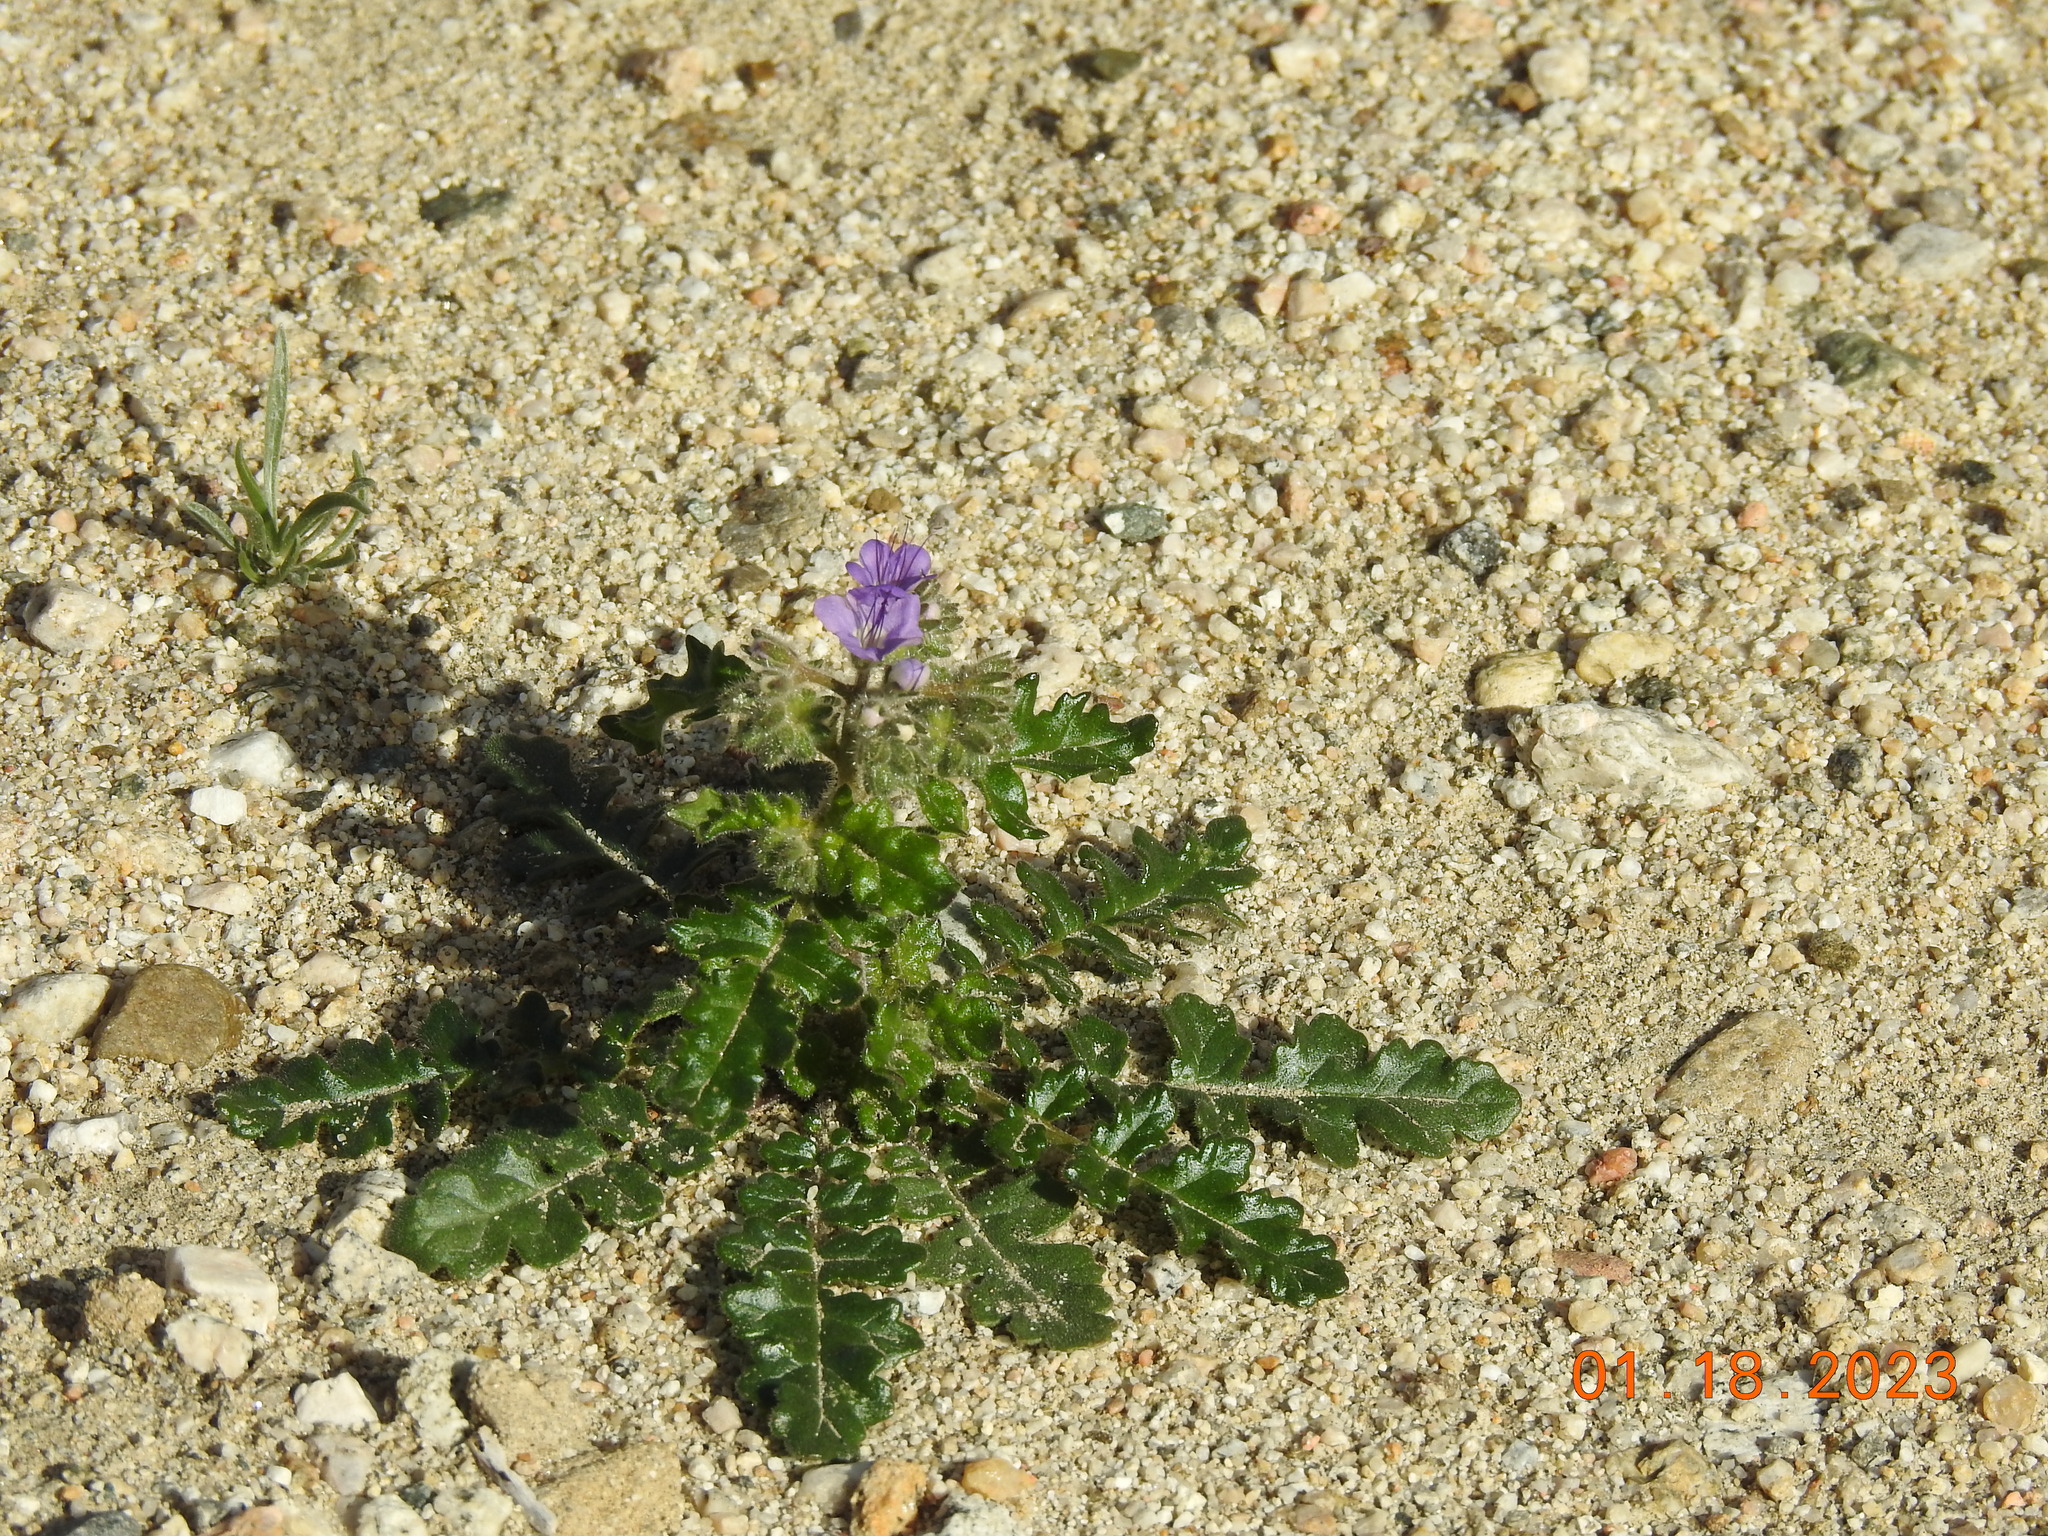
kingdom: Plantae
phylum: Tracheophyta
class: Magnoliopsida
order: Boraginales
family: Hydrophyllaceae
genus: Phacelia
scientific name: Phacelia crenulata
